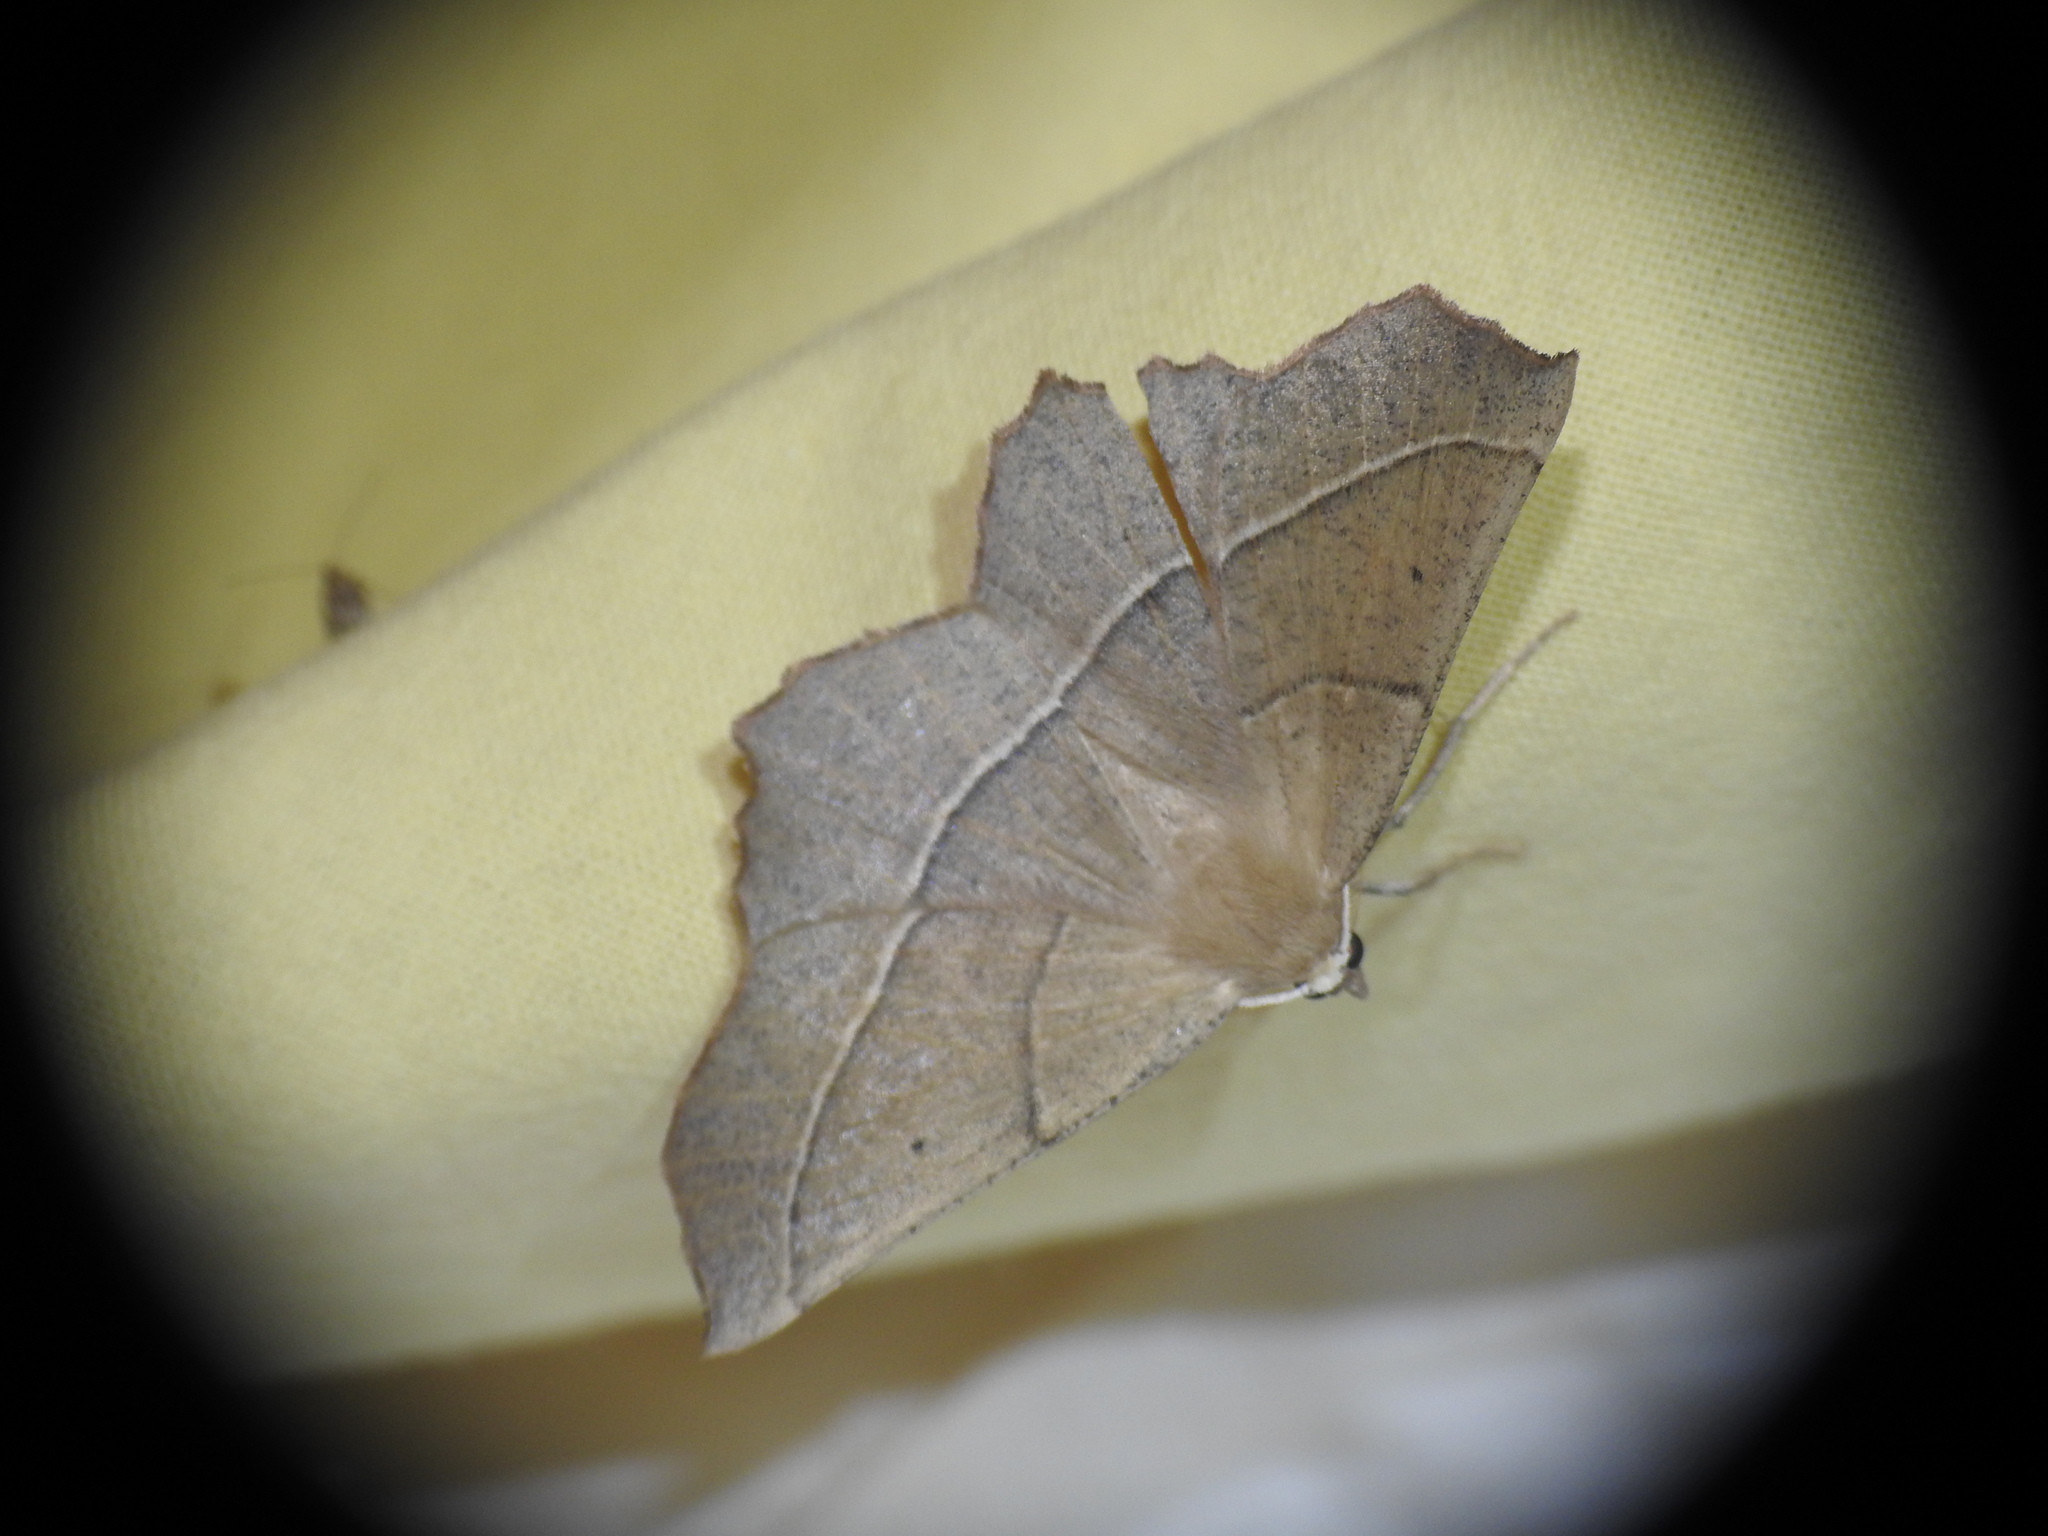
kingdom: Animalia
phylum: Arthropoda
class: Insecta
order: Lepidoptera
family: Geometridae
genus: Gerinia
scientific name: Gerinia honoraria
